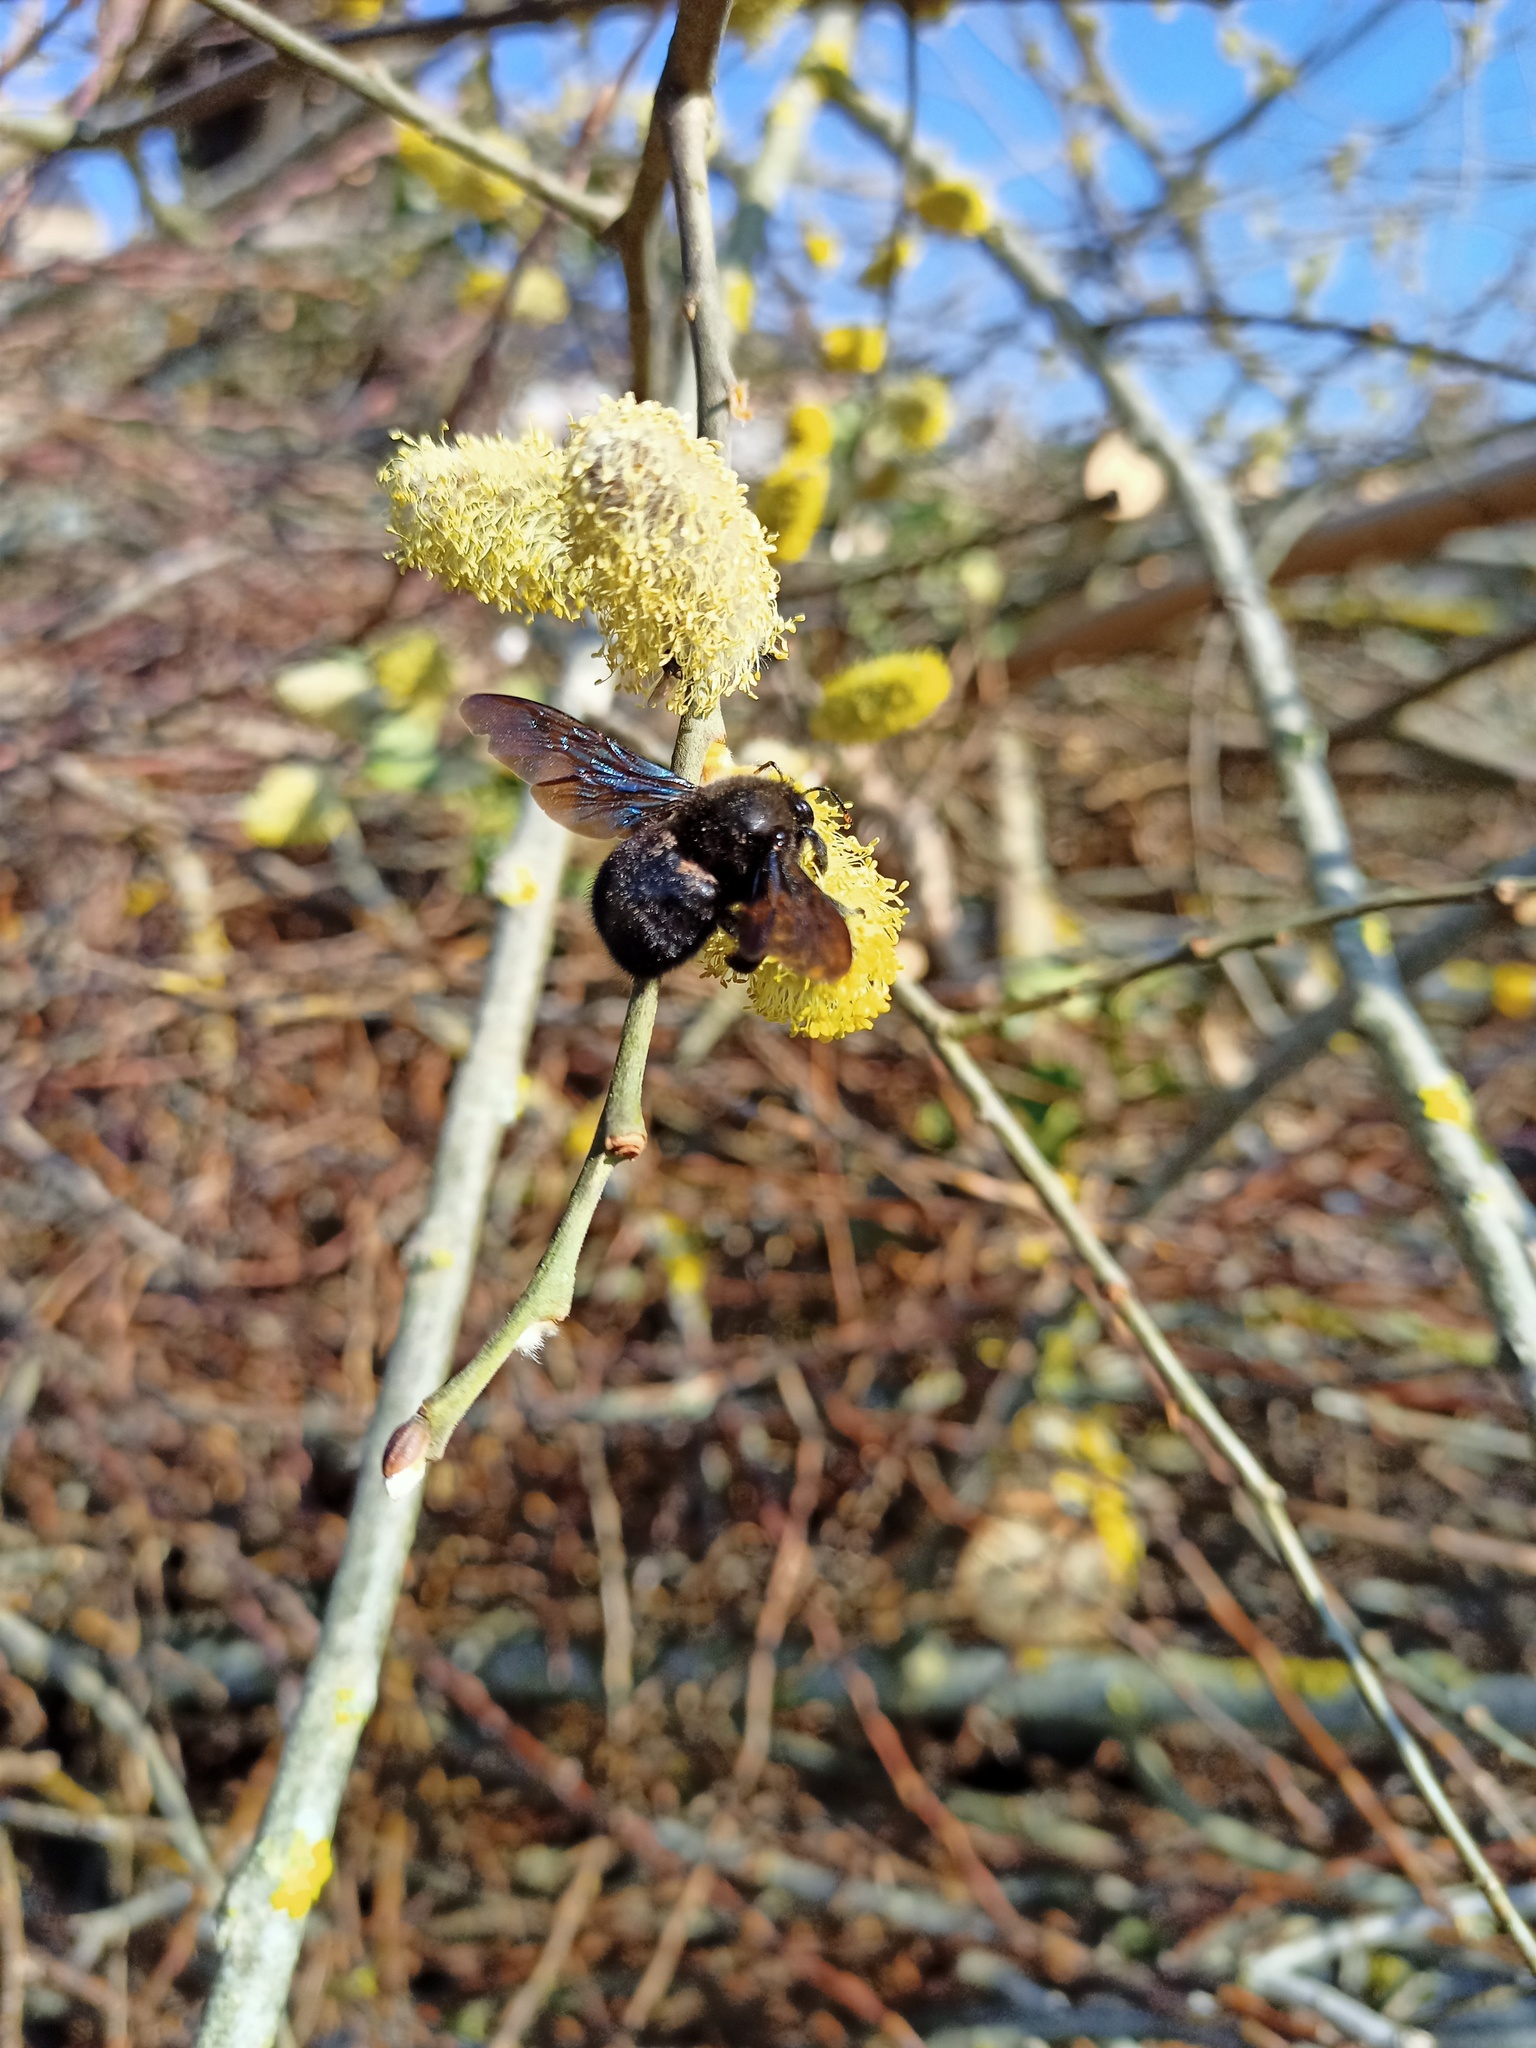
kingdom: Animalia
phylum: Arthropoda
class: Insecta
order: Hymenoptera
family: Apidae
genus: Xylocopa
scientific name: Xylocopa violacea
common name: Violet carpenter bee
